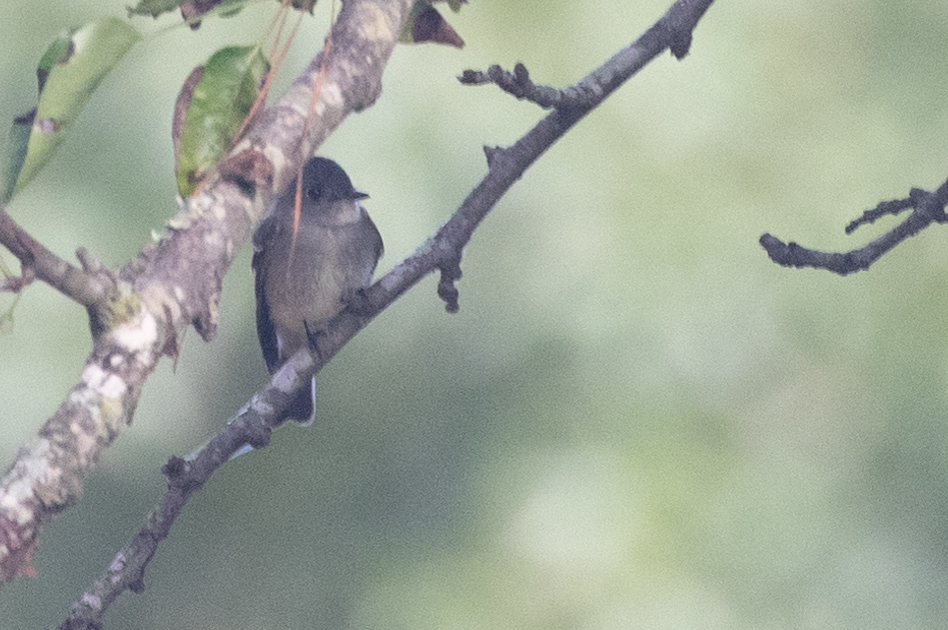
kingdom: Animalia
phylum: Chordata
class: Aves
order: Passeriformes
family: Tyrannidae
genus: Contopus
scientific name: Contopus virens
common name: Eastern wood-pewee
